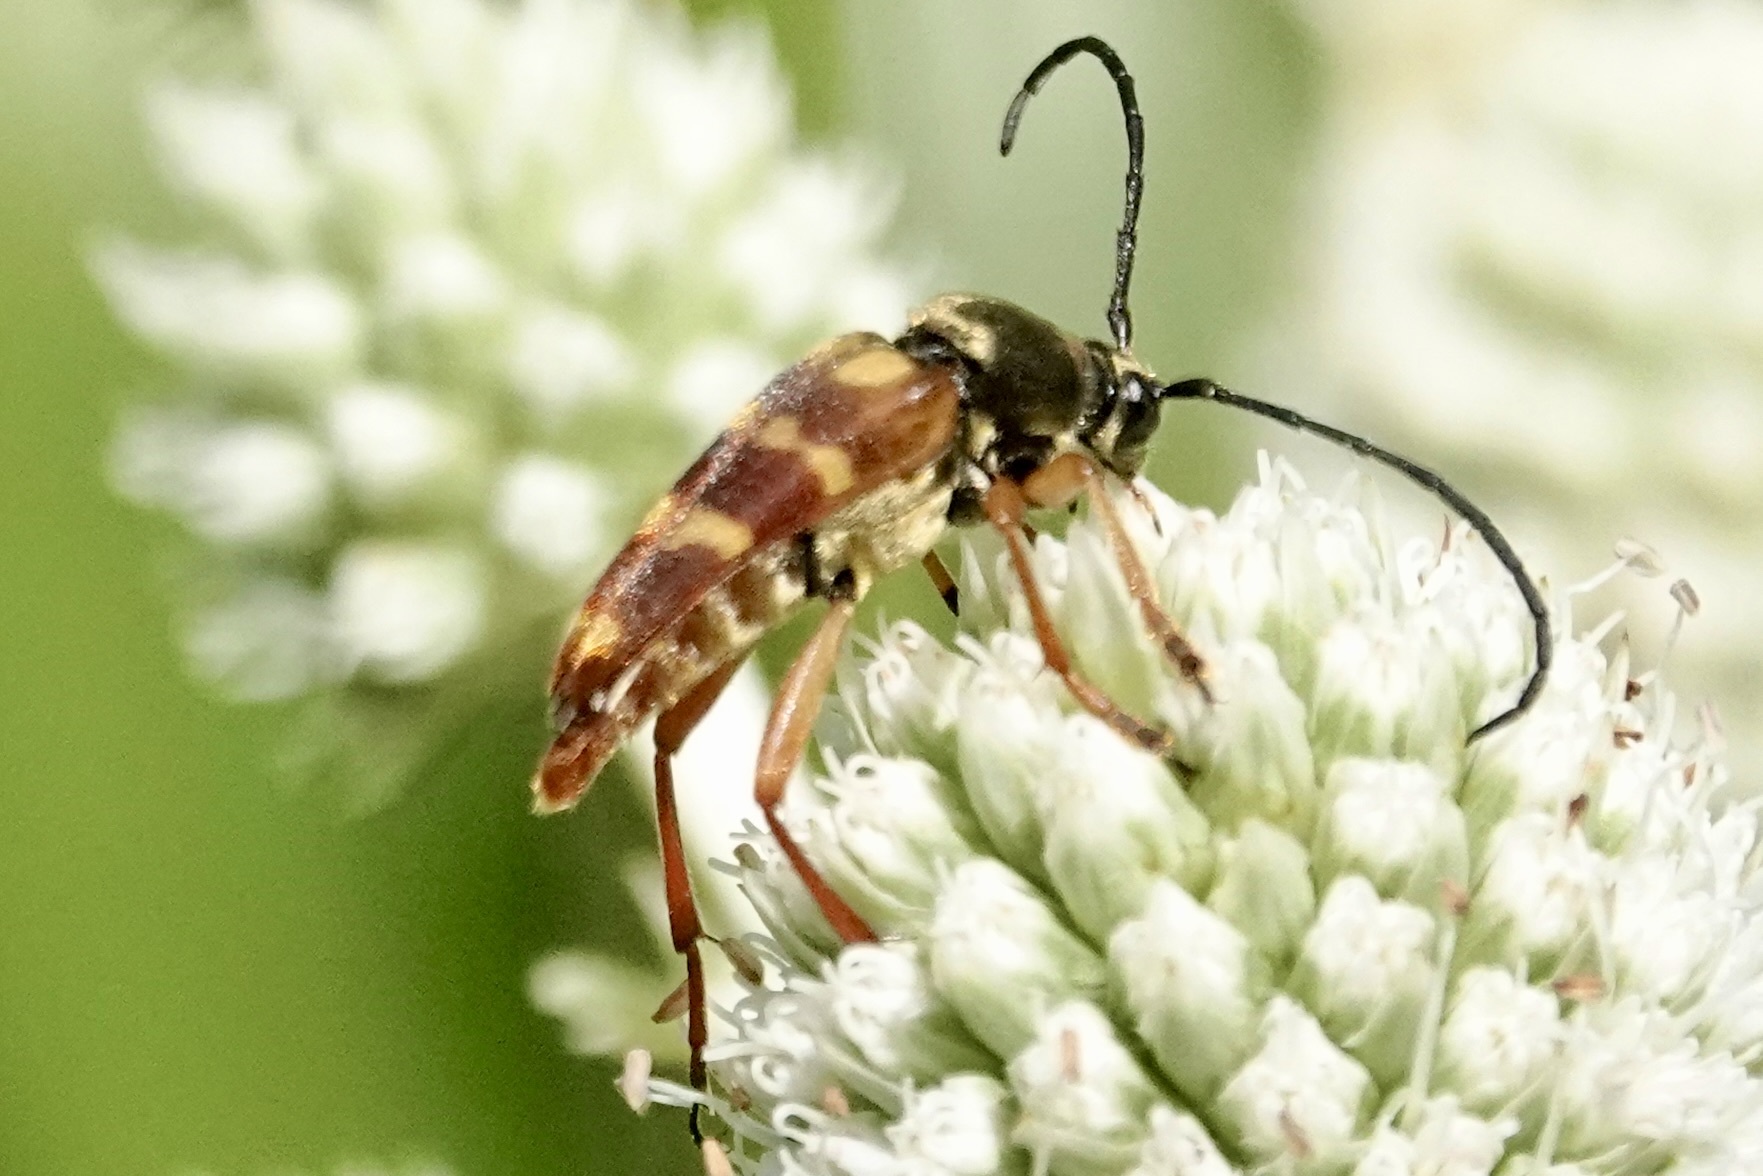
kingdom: Animalia
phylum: Arthropoda
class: Insecta
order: Coleoptera
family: Cerambycidae
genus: Typocerus
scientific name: Typocerus velutinus
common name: Banded longhorn beetle
